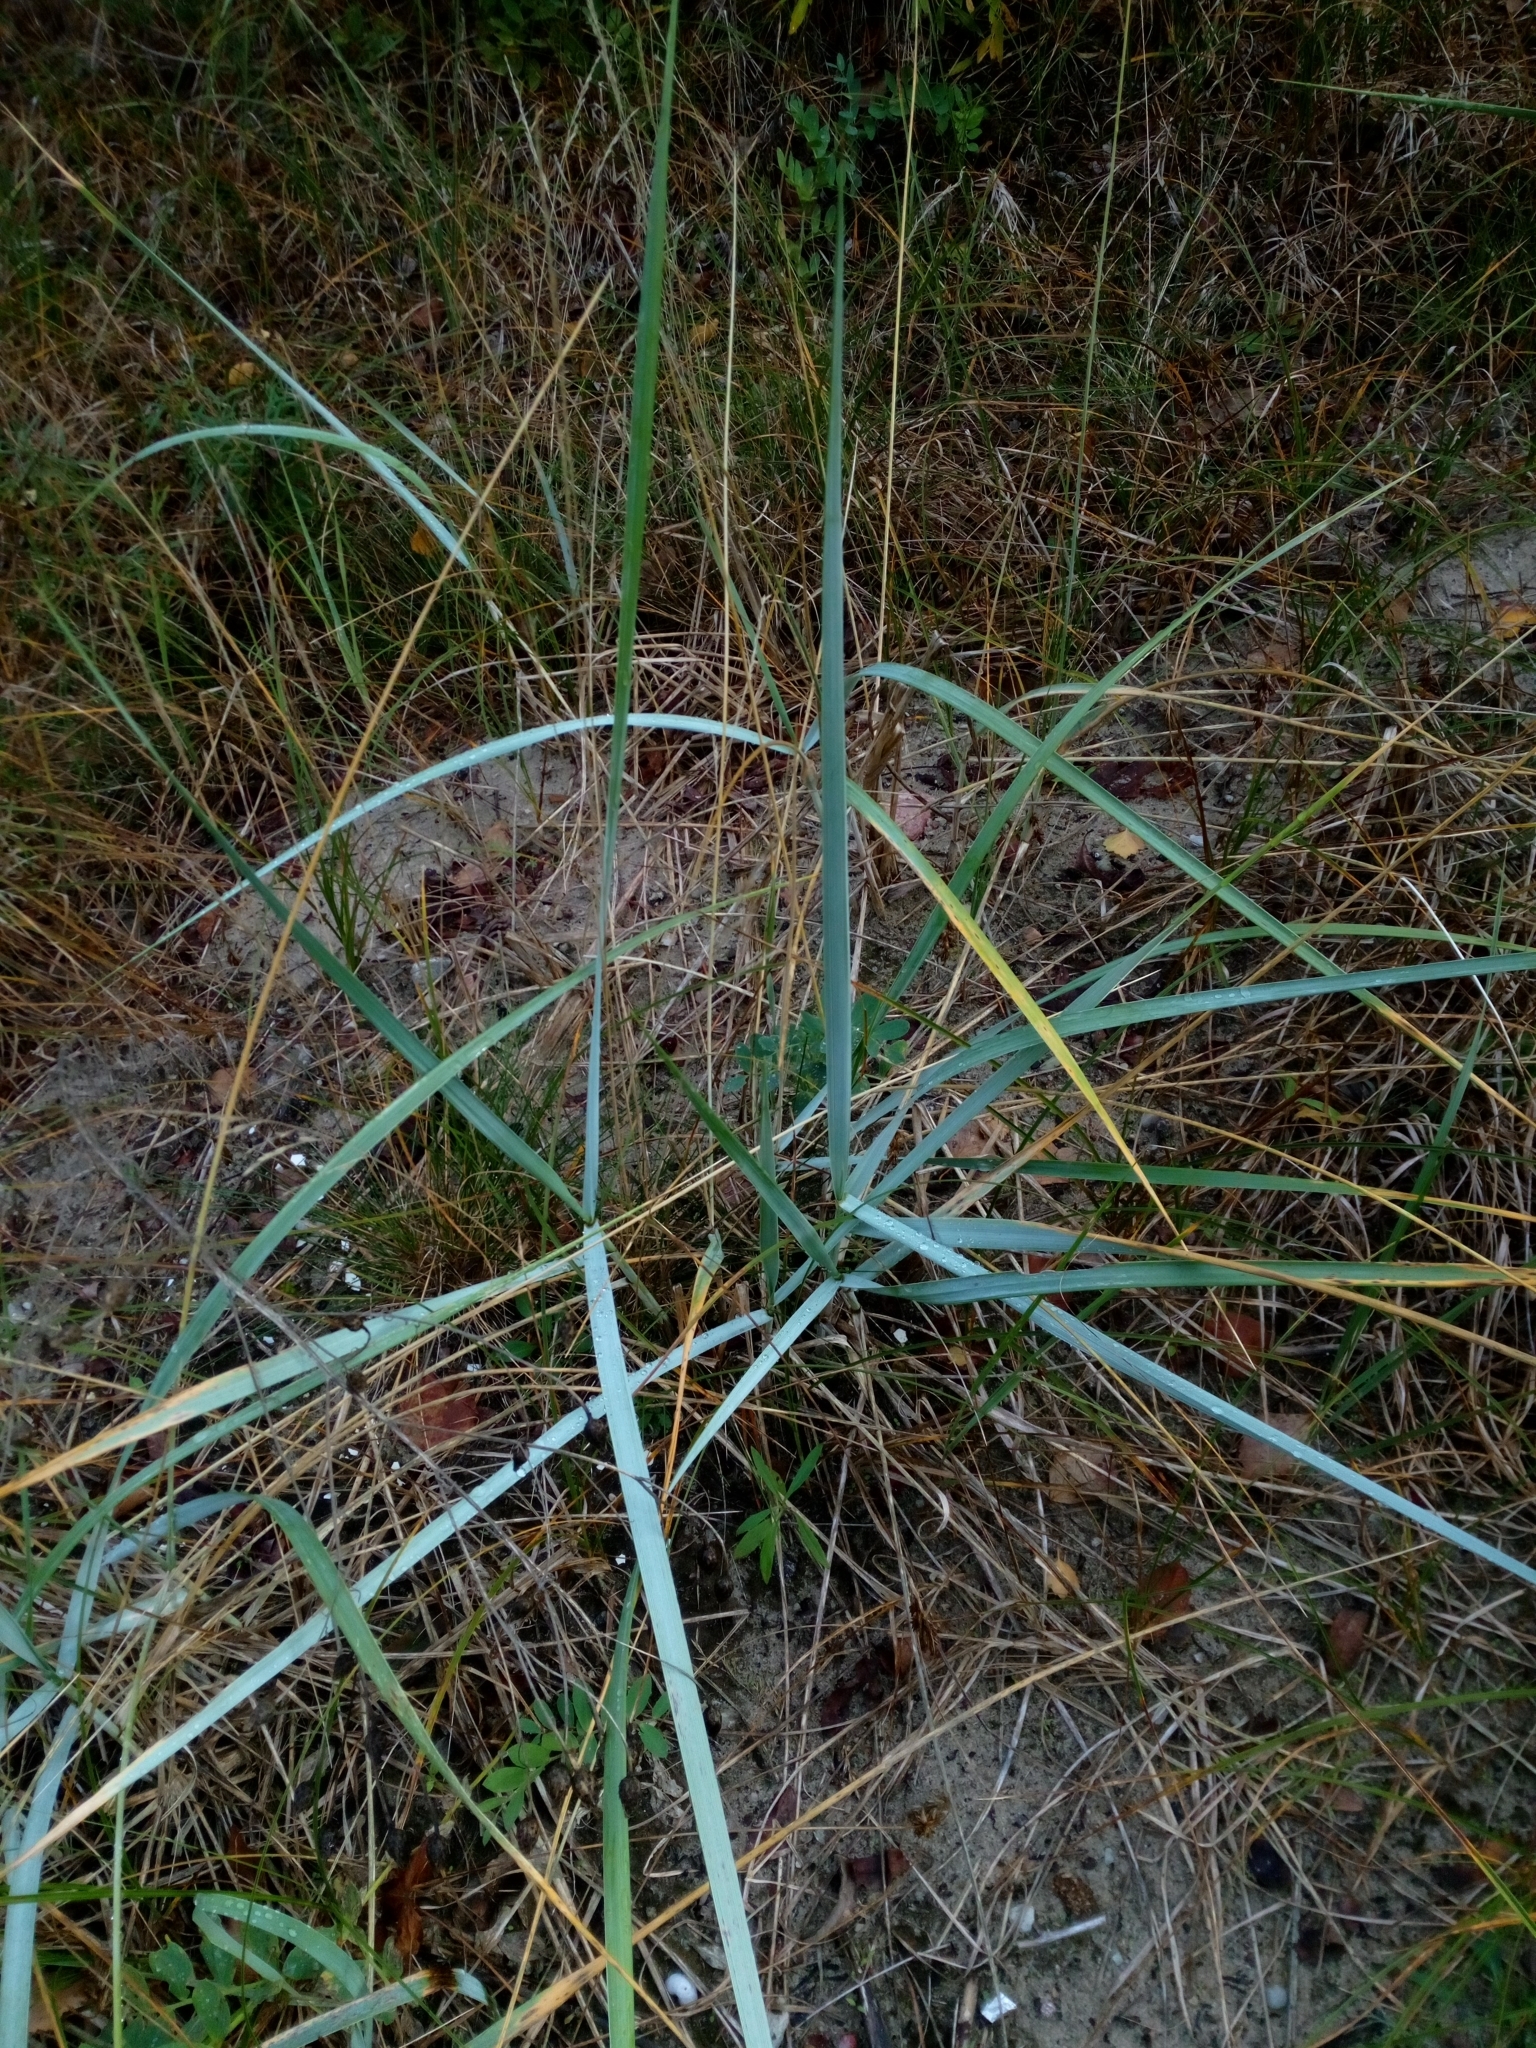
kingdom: Plantae
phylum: Tracheophyta
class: Liliopsida
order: Poales
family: Poaceae
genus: Leymus
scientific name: Leymus arenarius
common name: Lyme-grass
